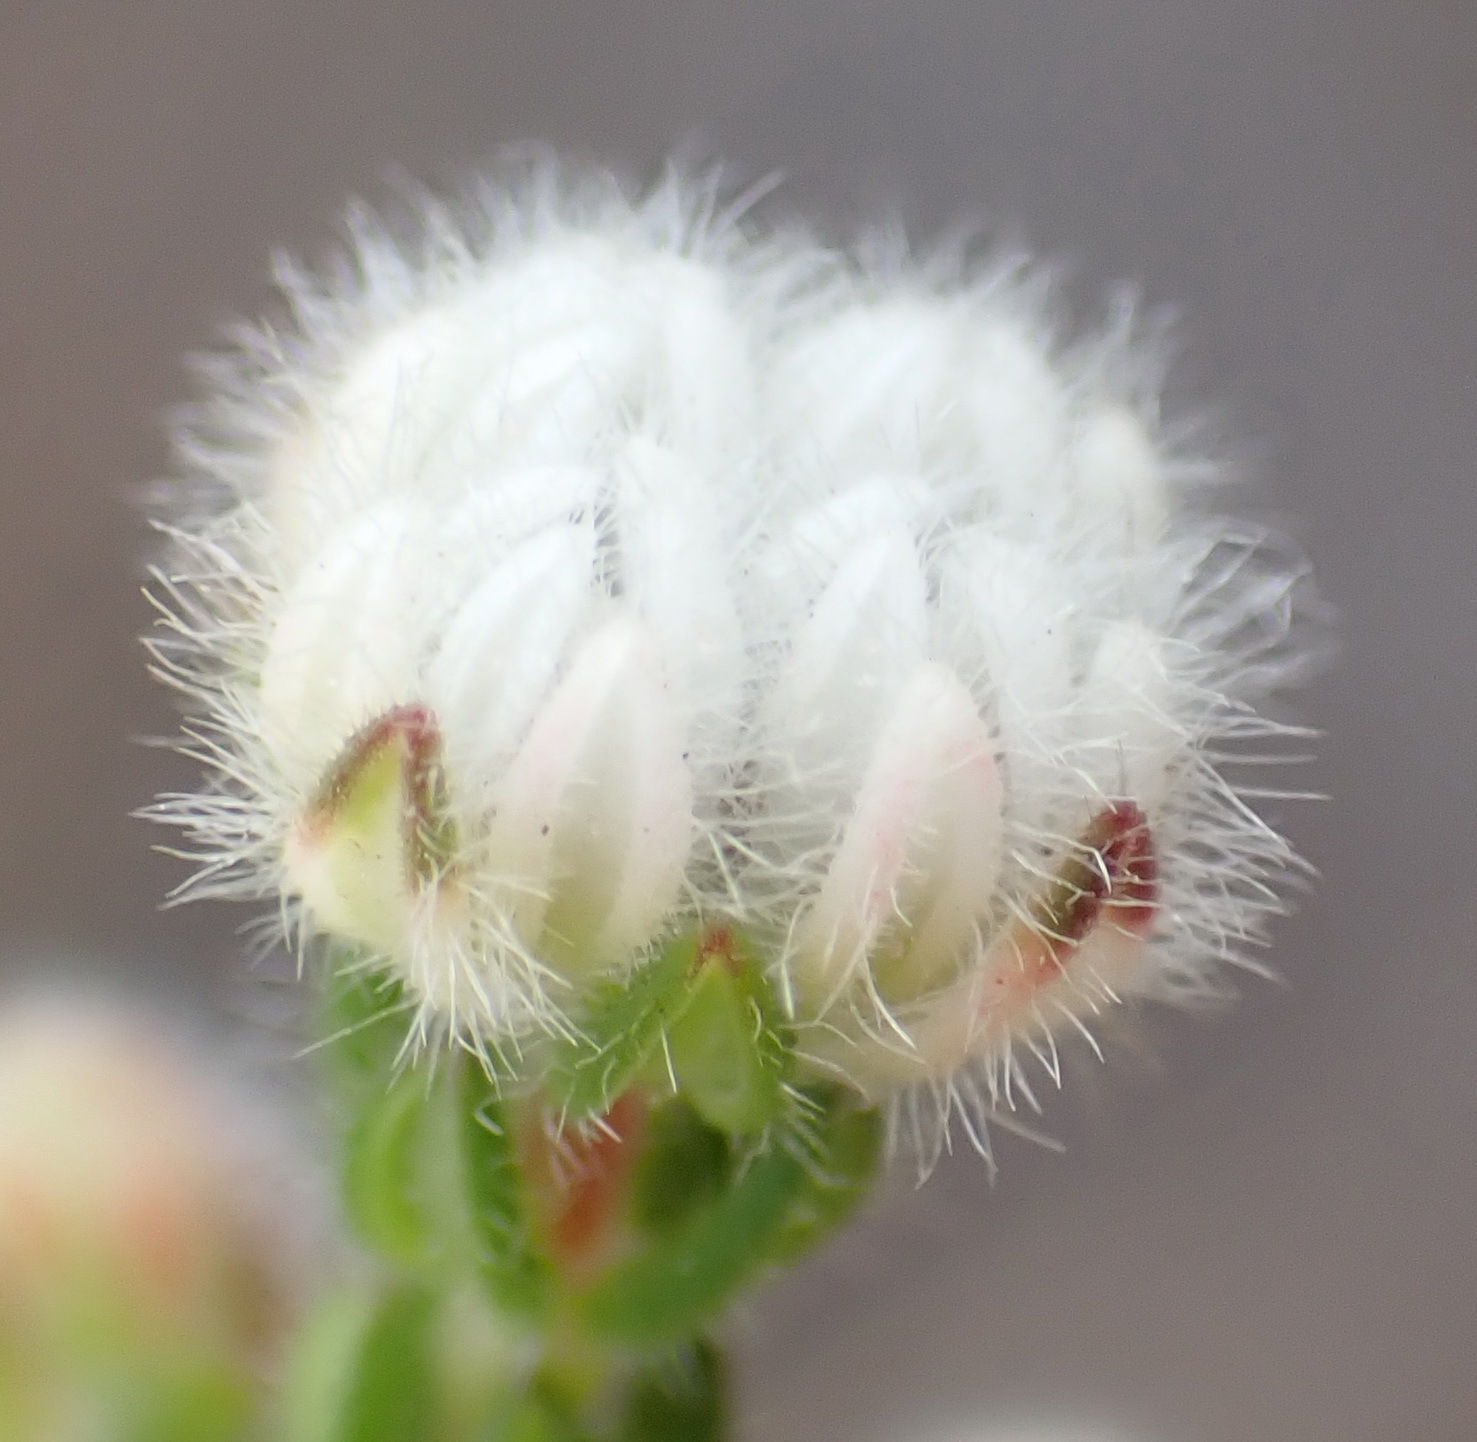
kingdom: Plantae
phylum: Tracheophyta
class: Magnoliopsida
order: Ericales
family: Ericaceae
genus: Erica
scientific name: Erica flaccida
